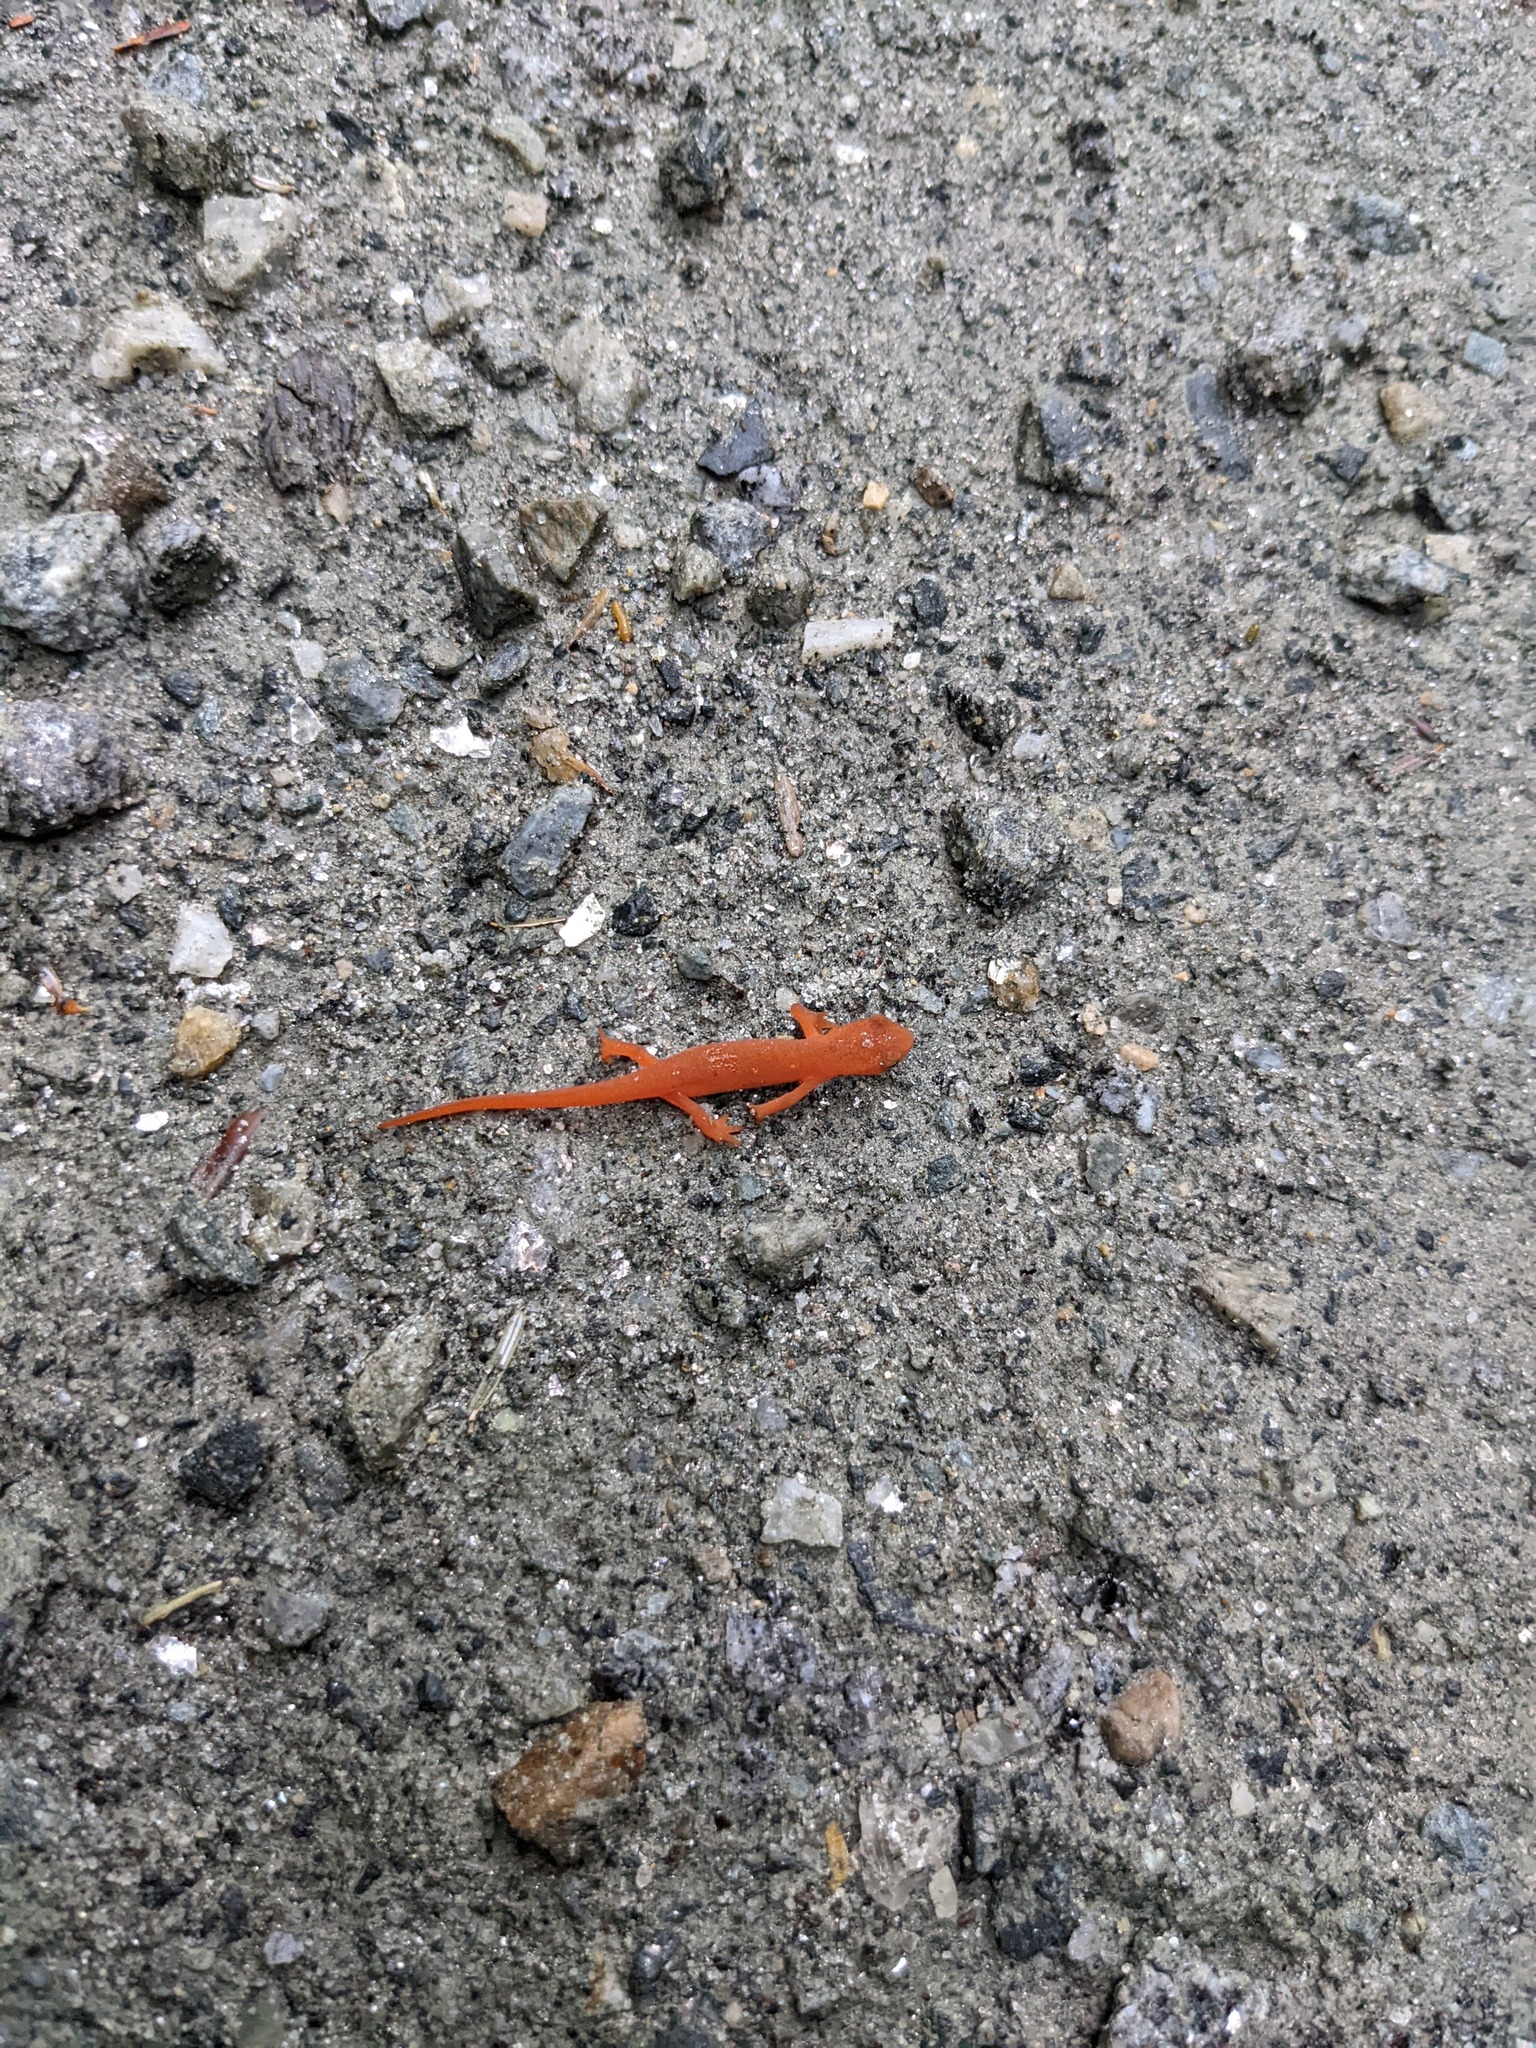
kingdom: Animalia
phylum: Chordata
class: Amphibia
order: Caudata
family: Salamandridae
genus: Notophthalmus
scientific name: Notophthalmus viridescens
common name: Eastern newt
